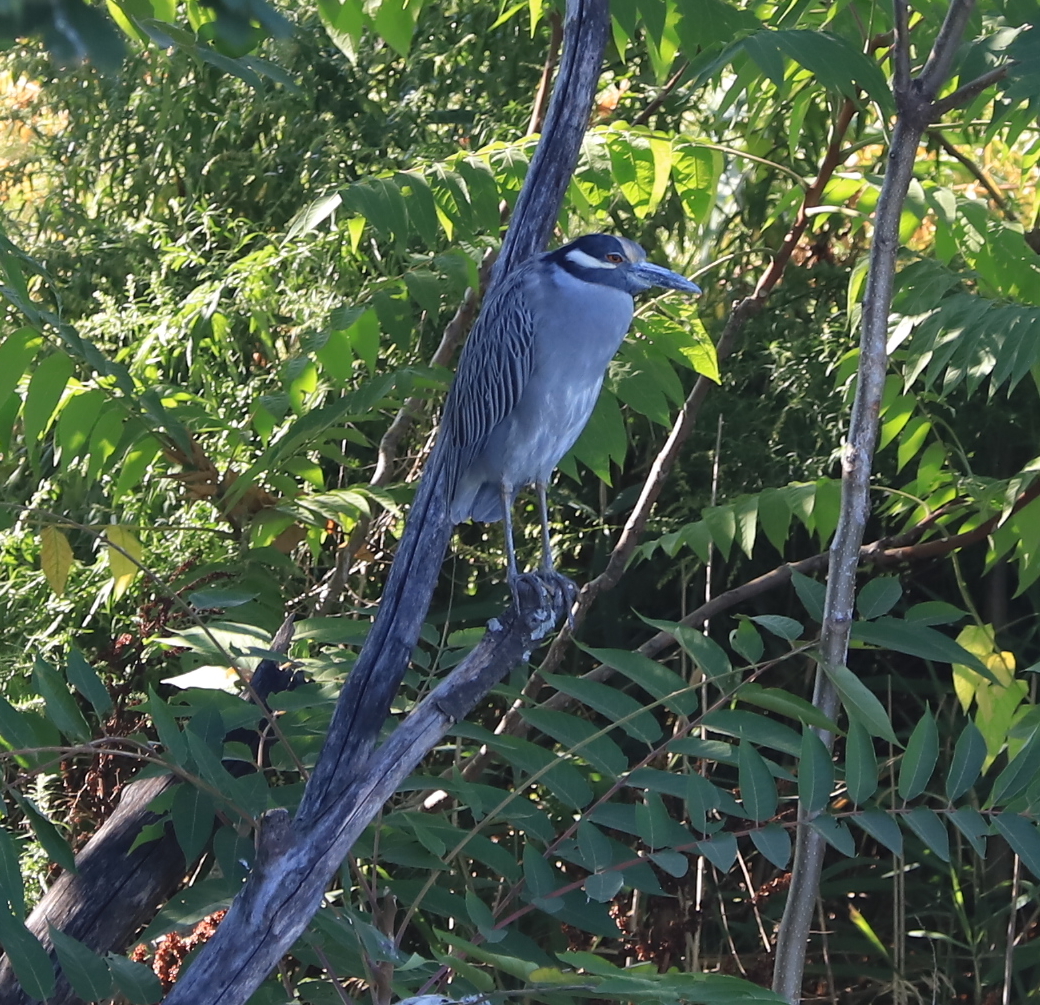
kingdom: Animalia
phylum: Chordata
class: Aves
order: Pelecaniformes
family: Ardeidae
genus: Nyctanassa
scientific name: Nyctanassa violacea
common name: Yellow-crowned night heron
